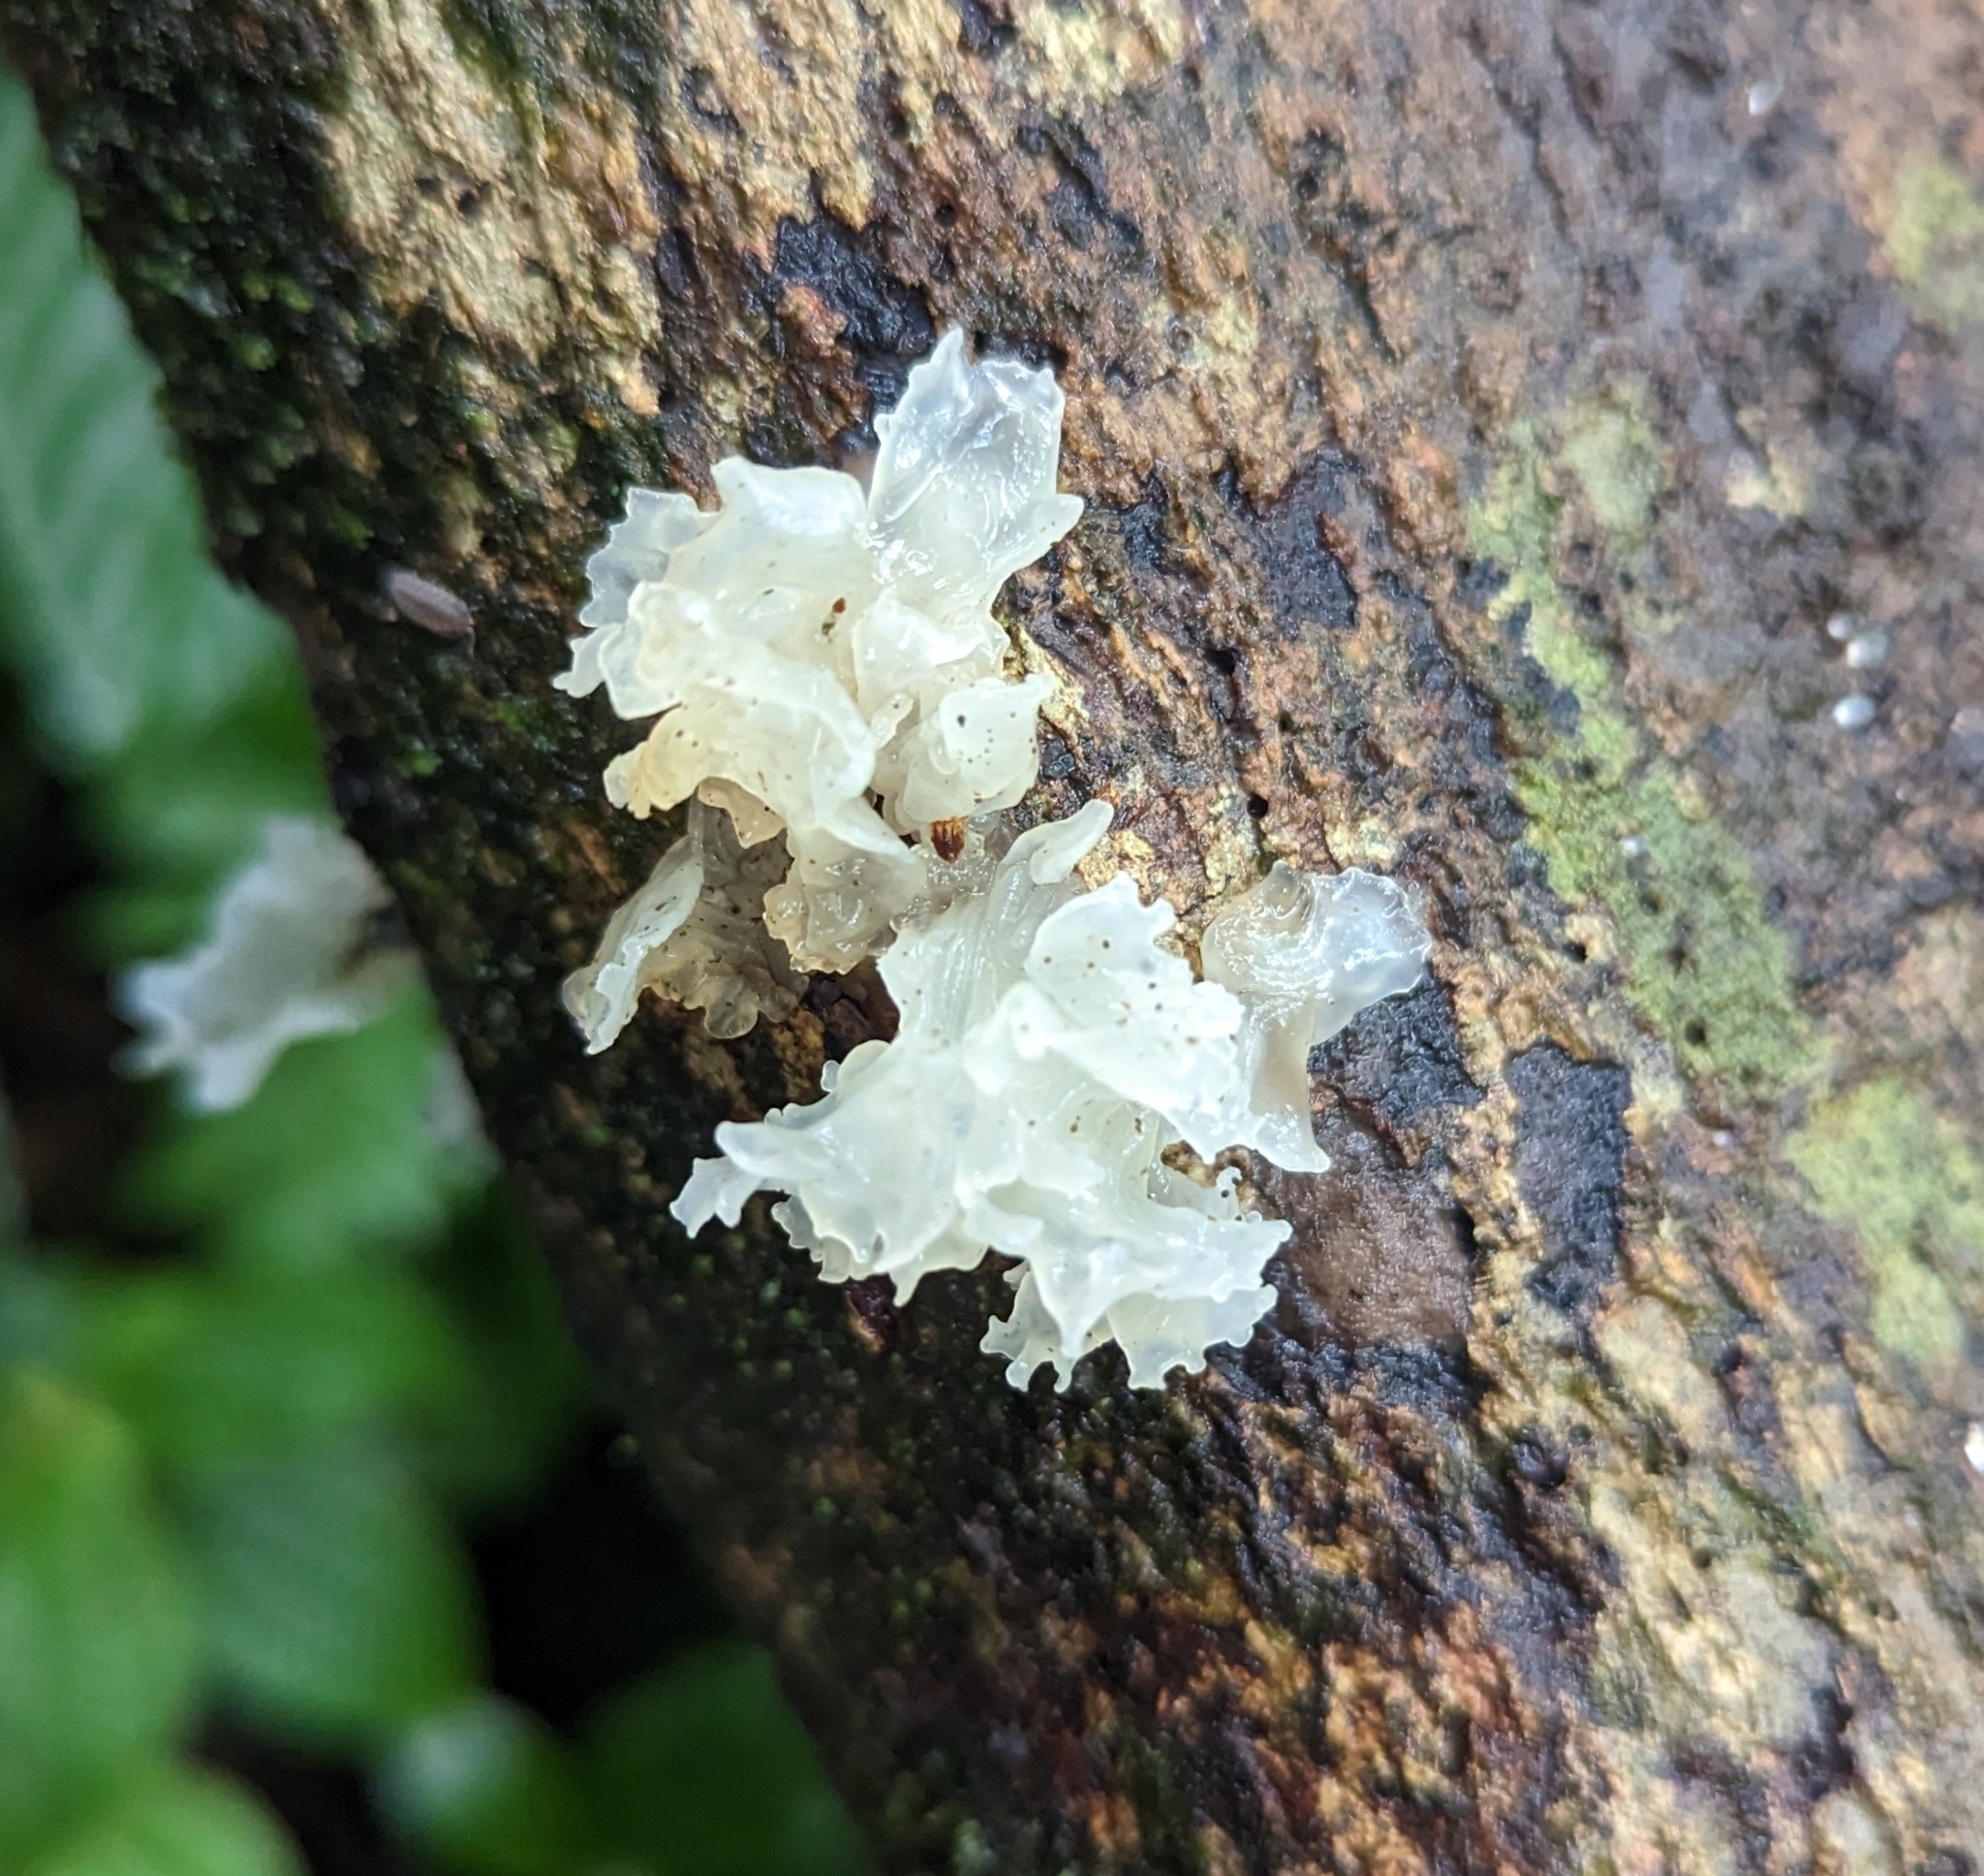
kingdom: Fungi
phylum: Basidiomycota
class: Tremellomycetes
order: Tremellales
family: Tremellaceae
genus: Tremella
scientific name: Tremella fuciformis
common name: Snow fungus
